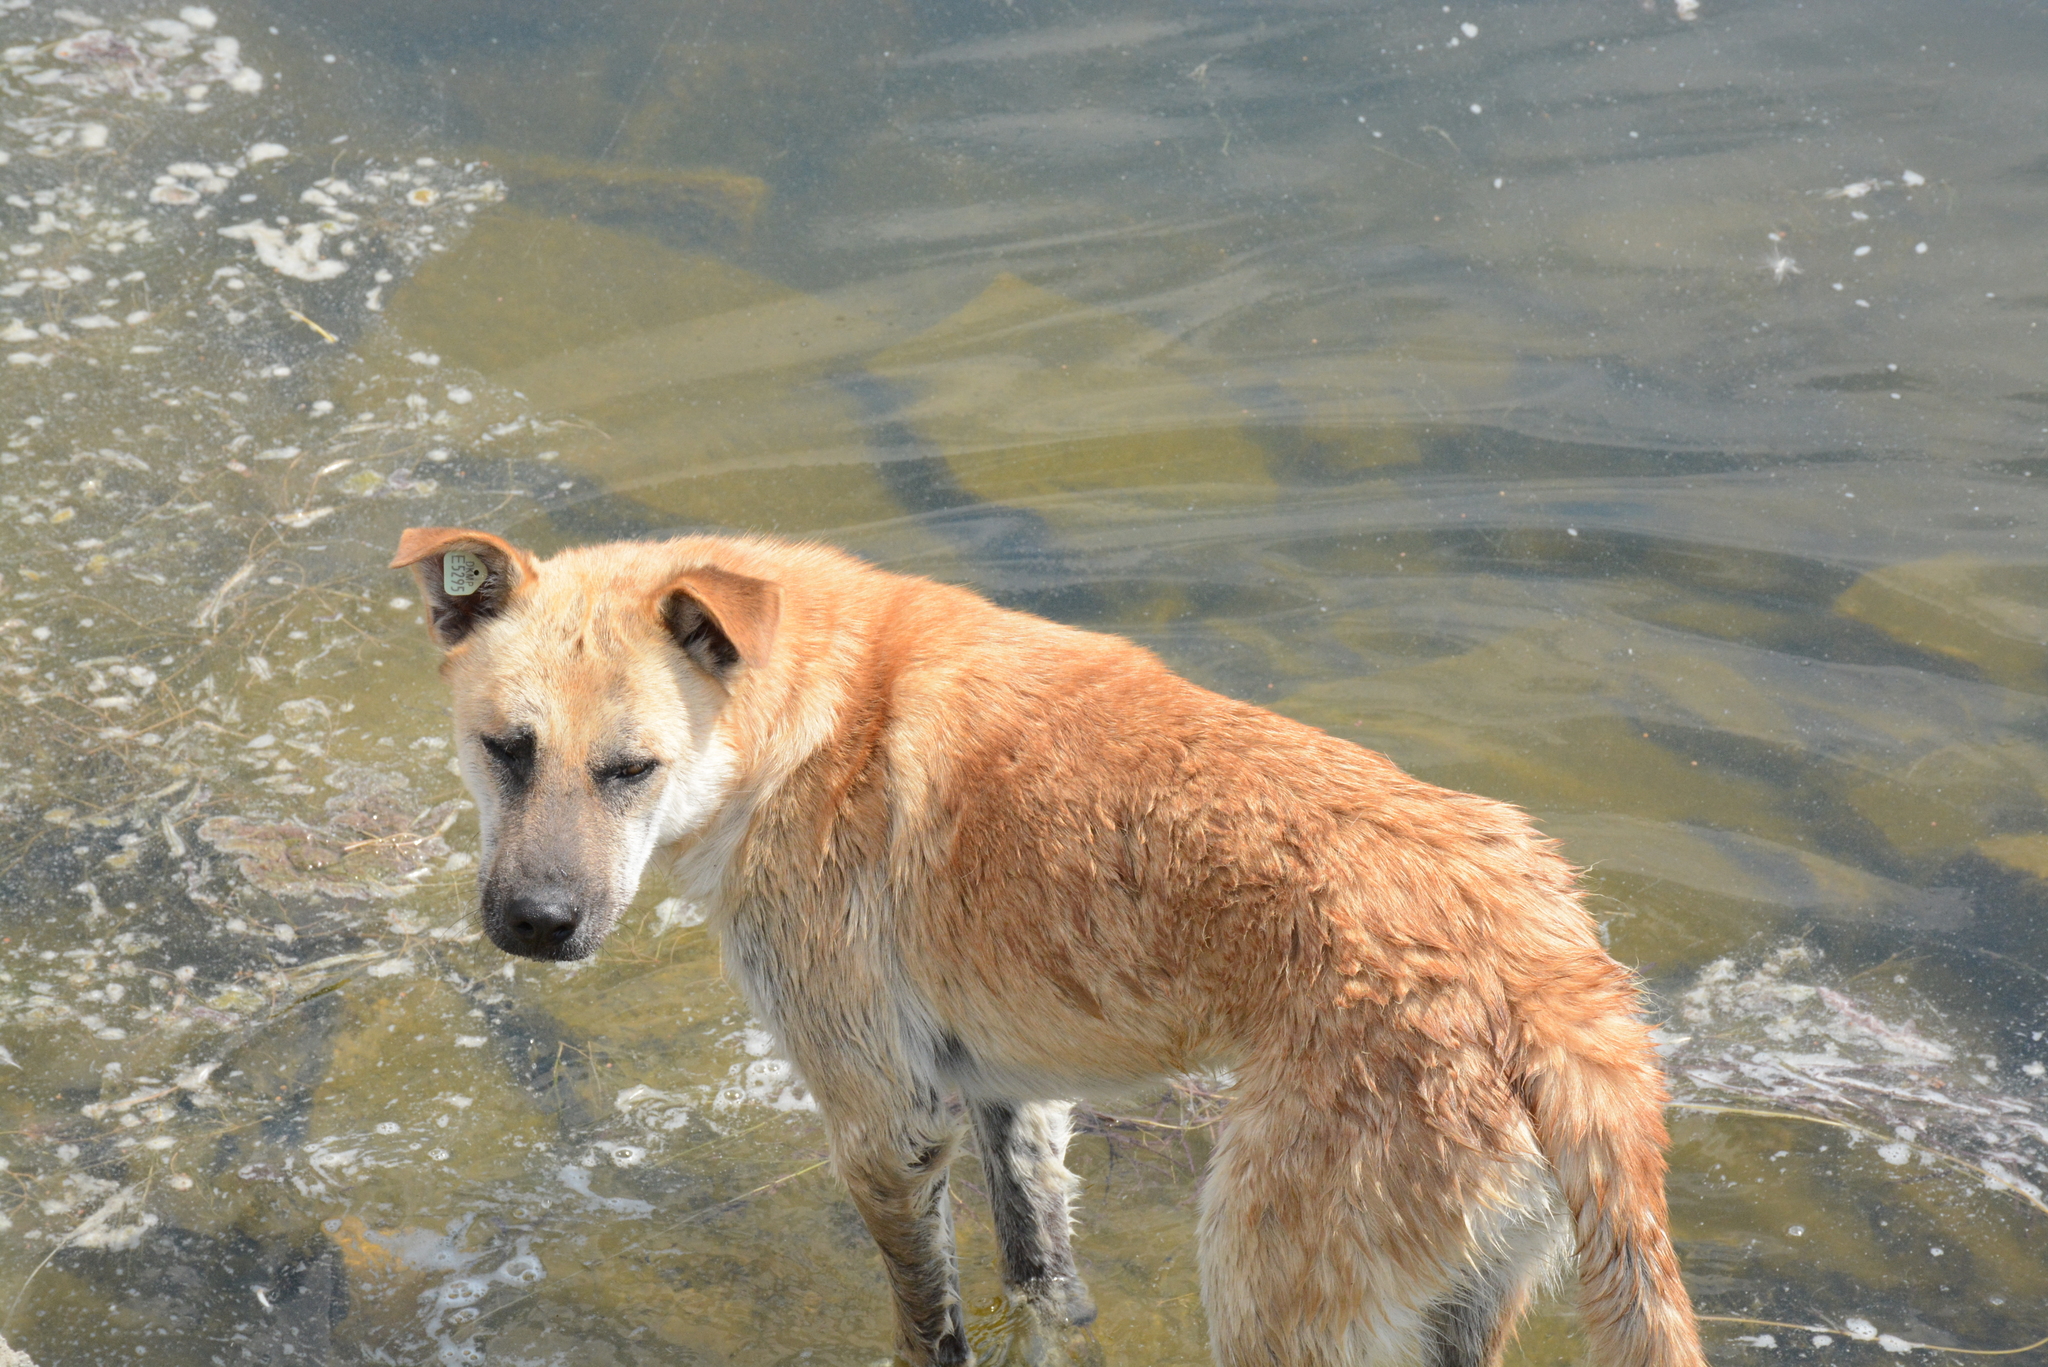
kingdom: Animalia
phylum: Chordata
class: Mammalia
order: Carnivora
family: Canidae
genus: Canis
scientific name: Canis lupus
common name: Gray wolf
